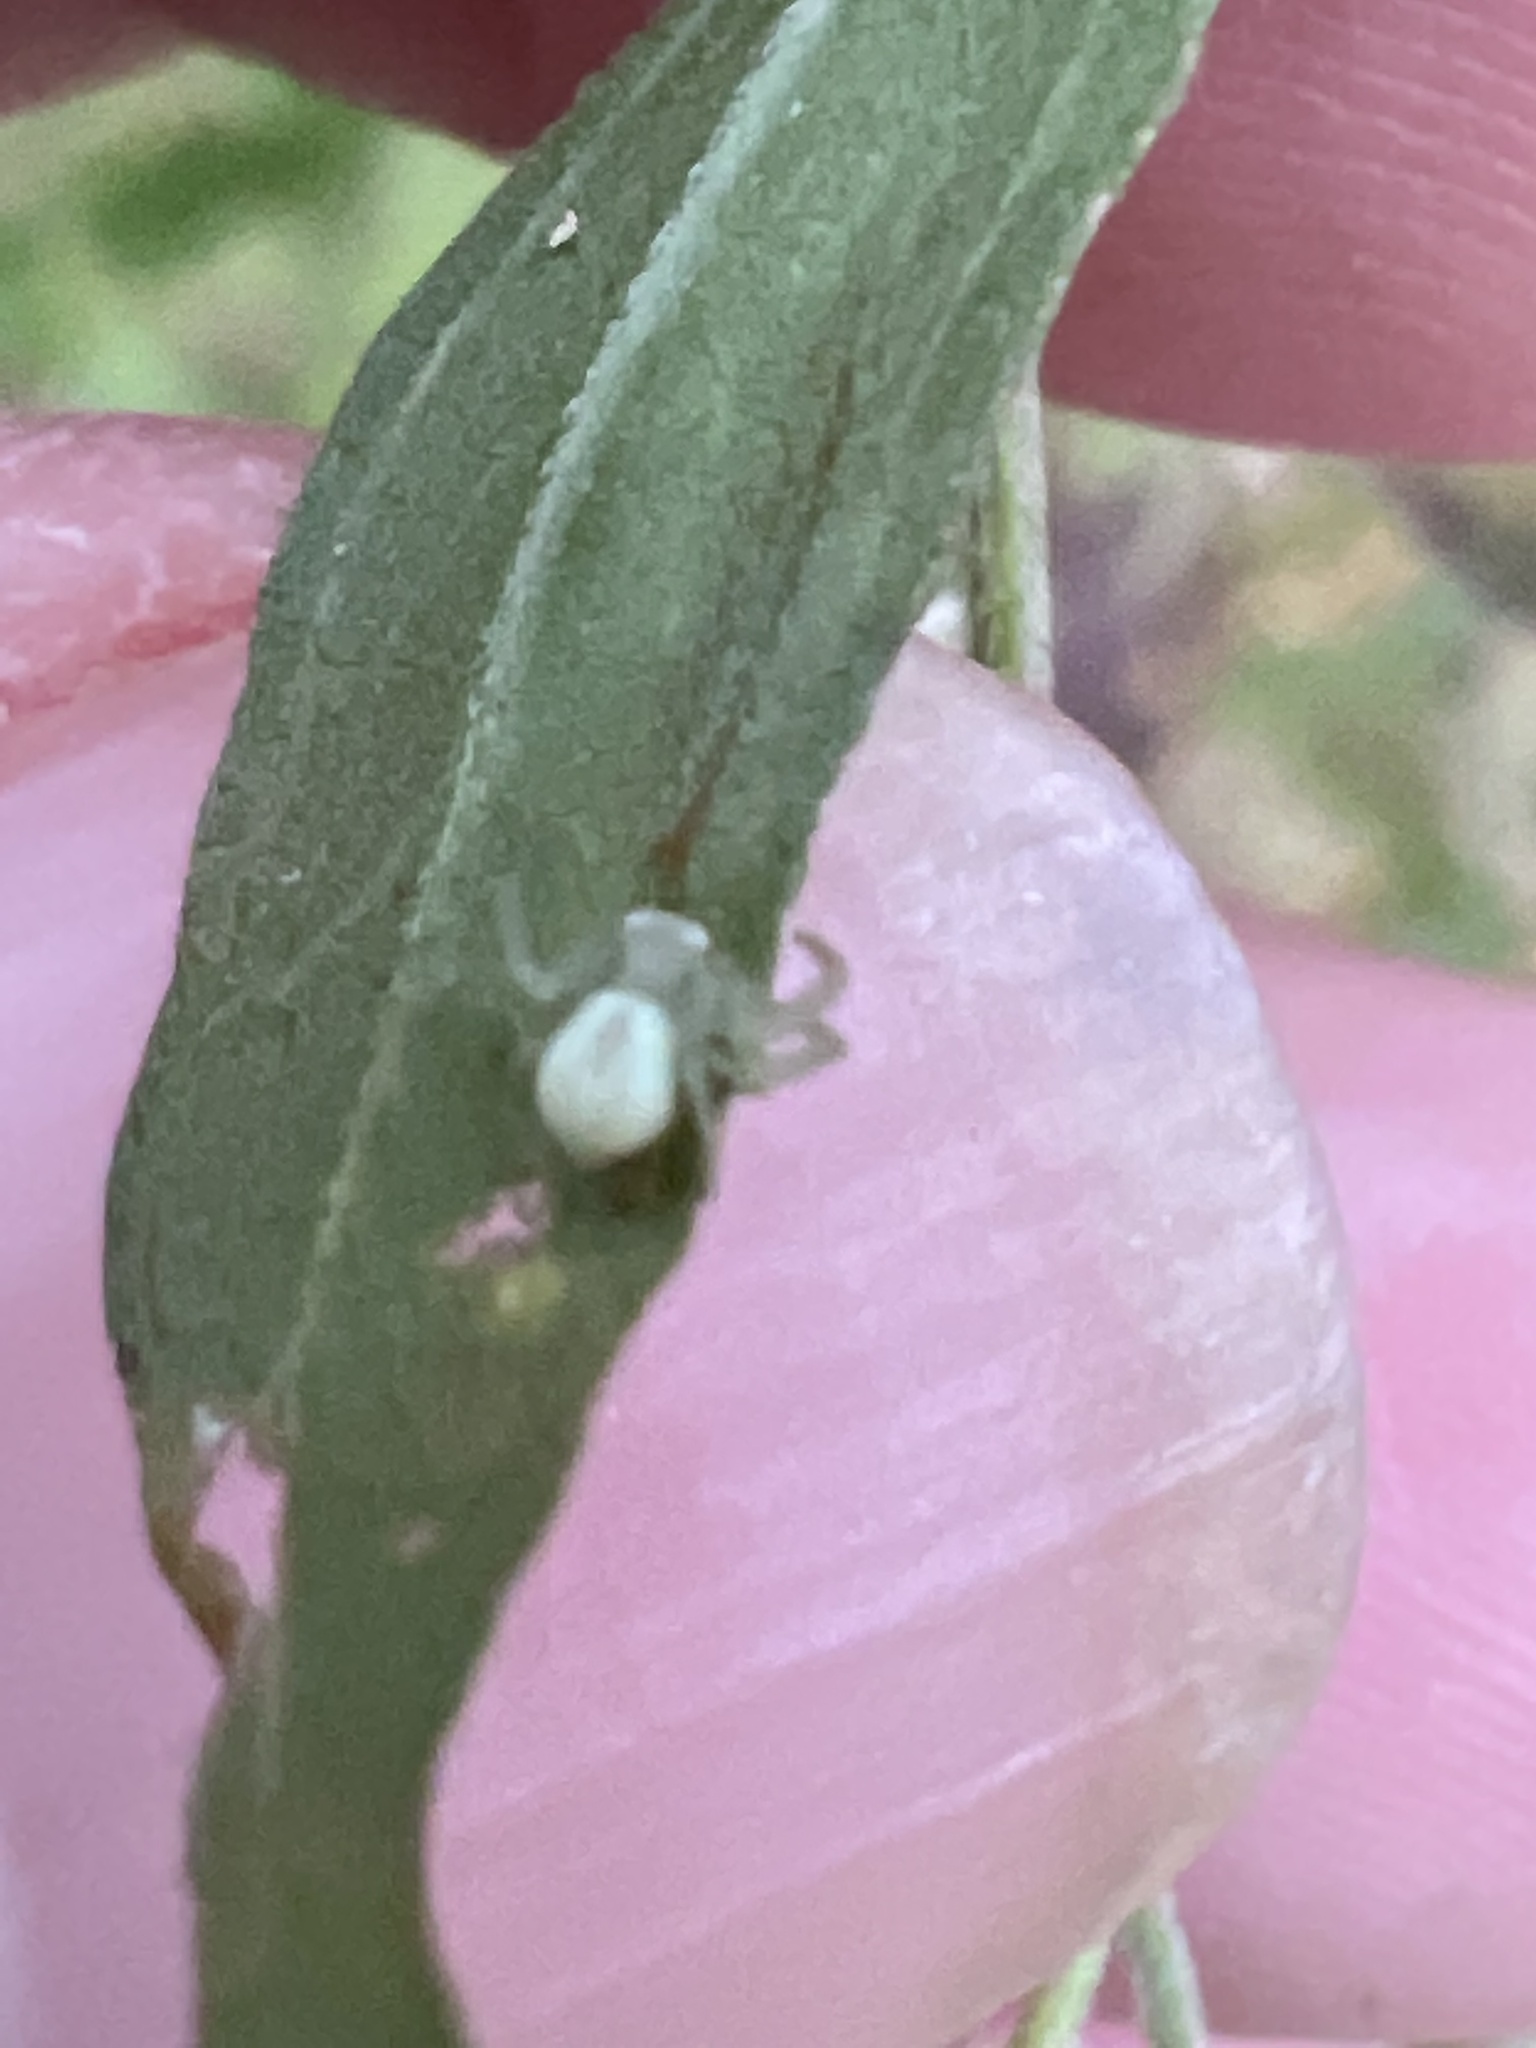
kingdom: Animalia
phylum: Arthropoda
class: Arachnida
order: Araneae
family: Thomisidae
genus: Misumessus
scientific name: Misumessus oblongus
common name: American green crab spider
